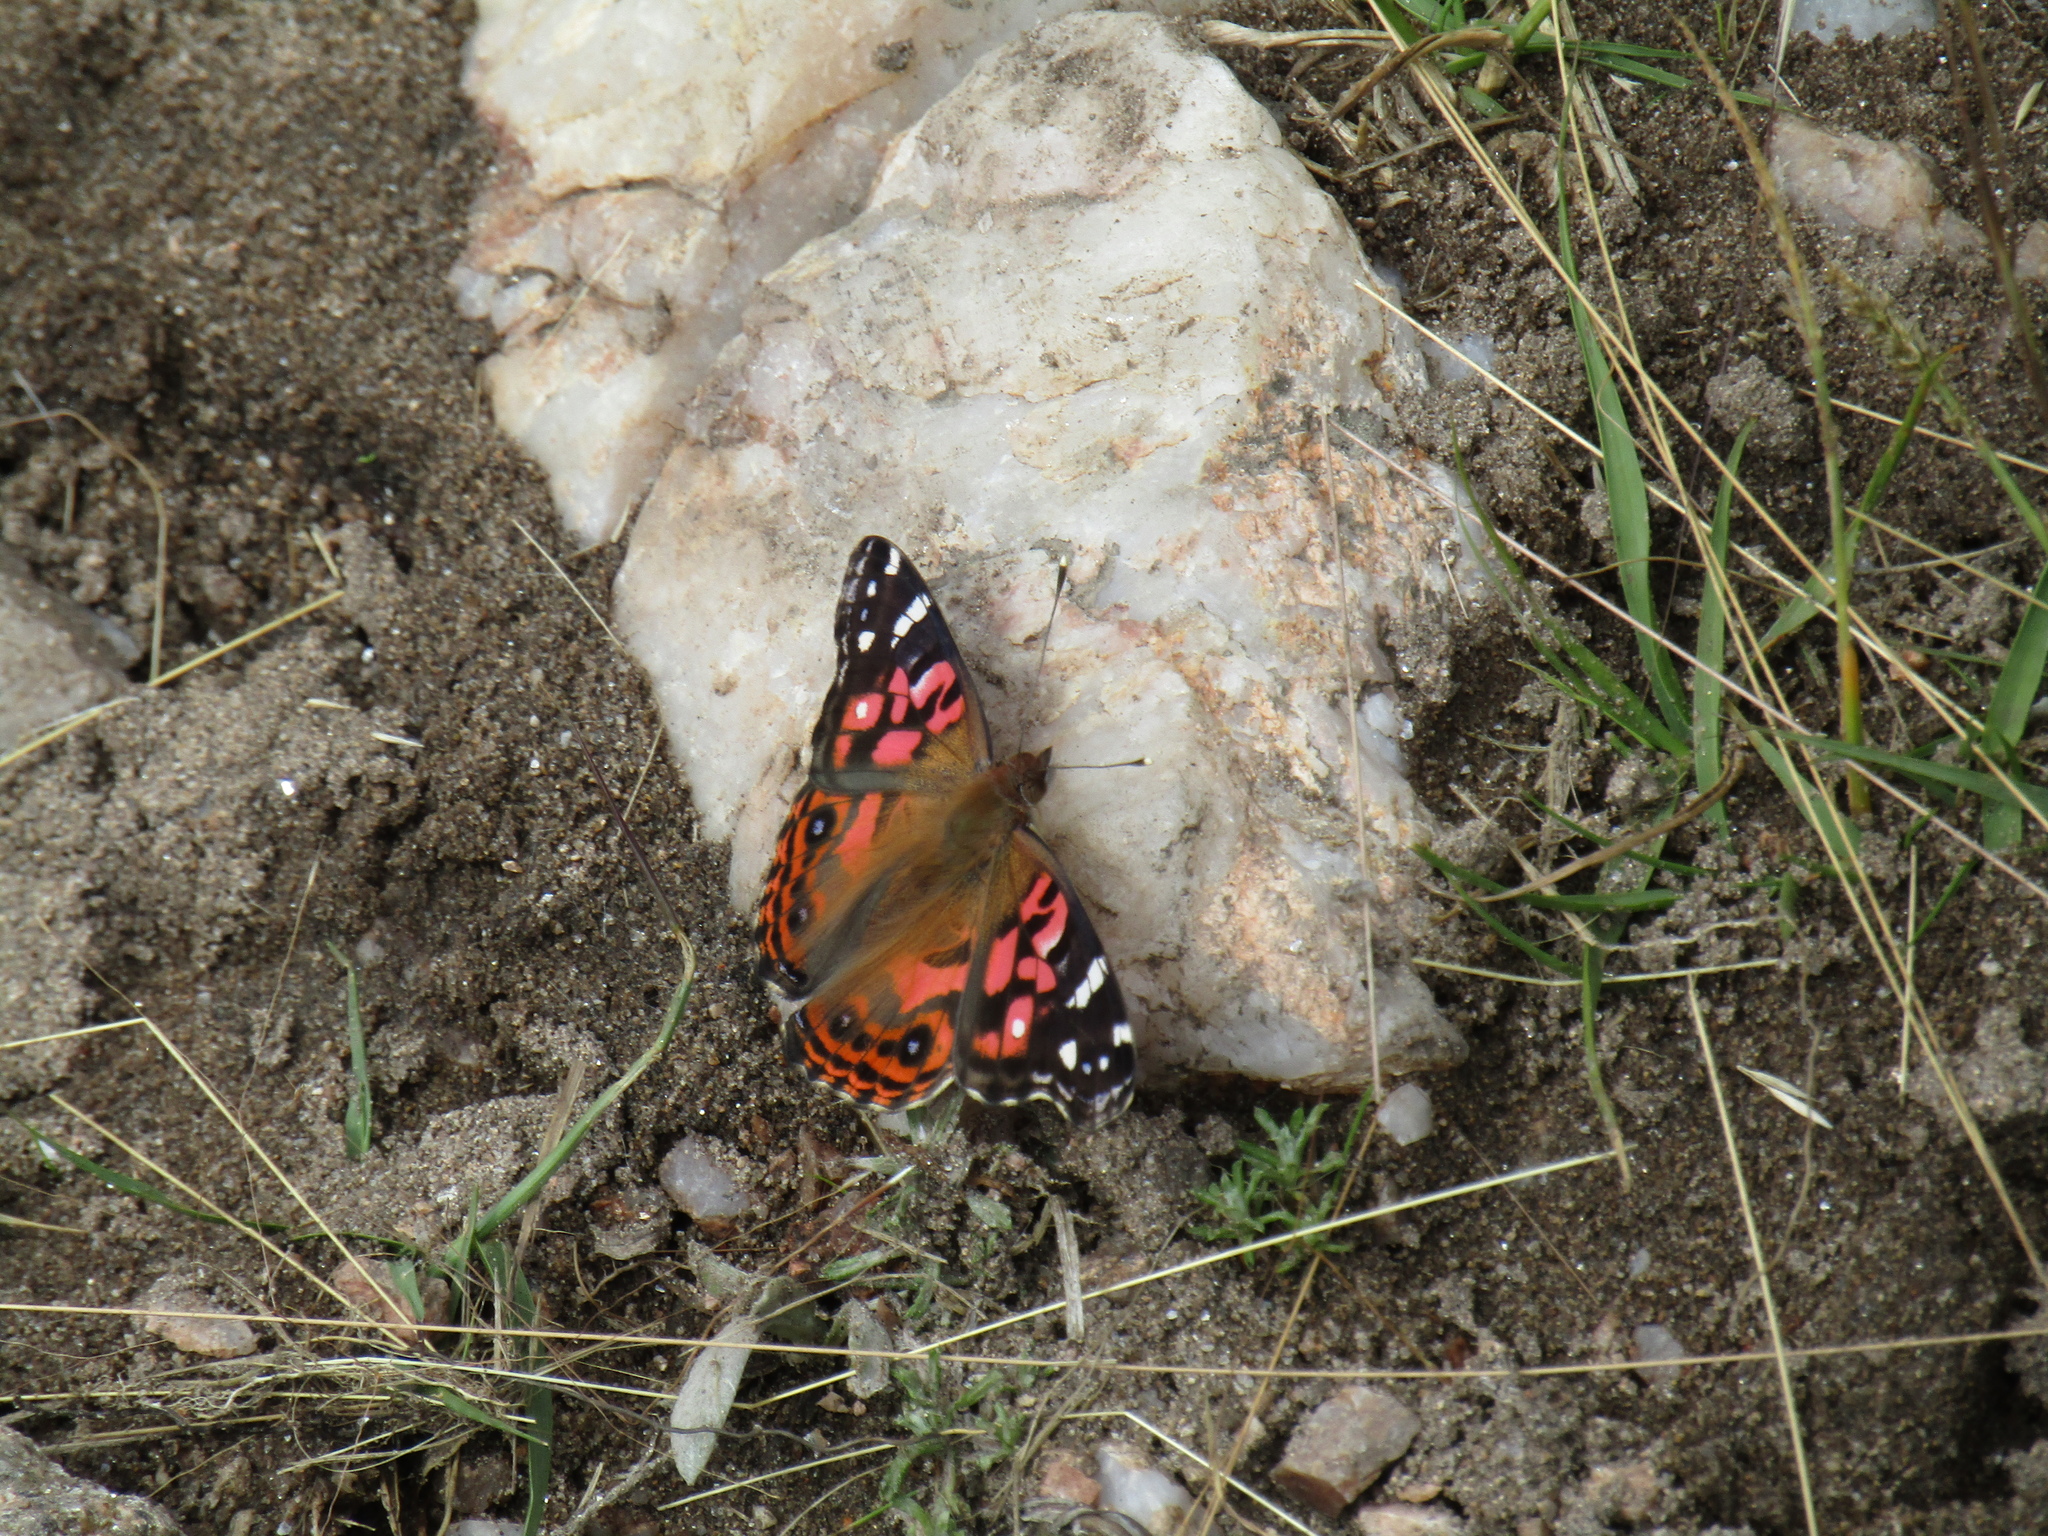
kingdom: Animalia
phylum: Arthropoda
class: Insecta
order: Lepidoptera
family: Nymphalidae
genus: Vanessa
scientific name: Vanessa braziliensis
